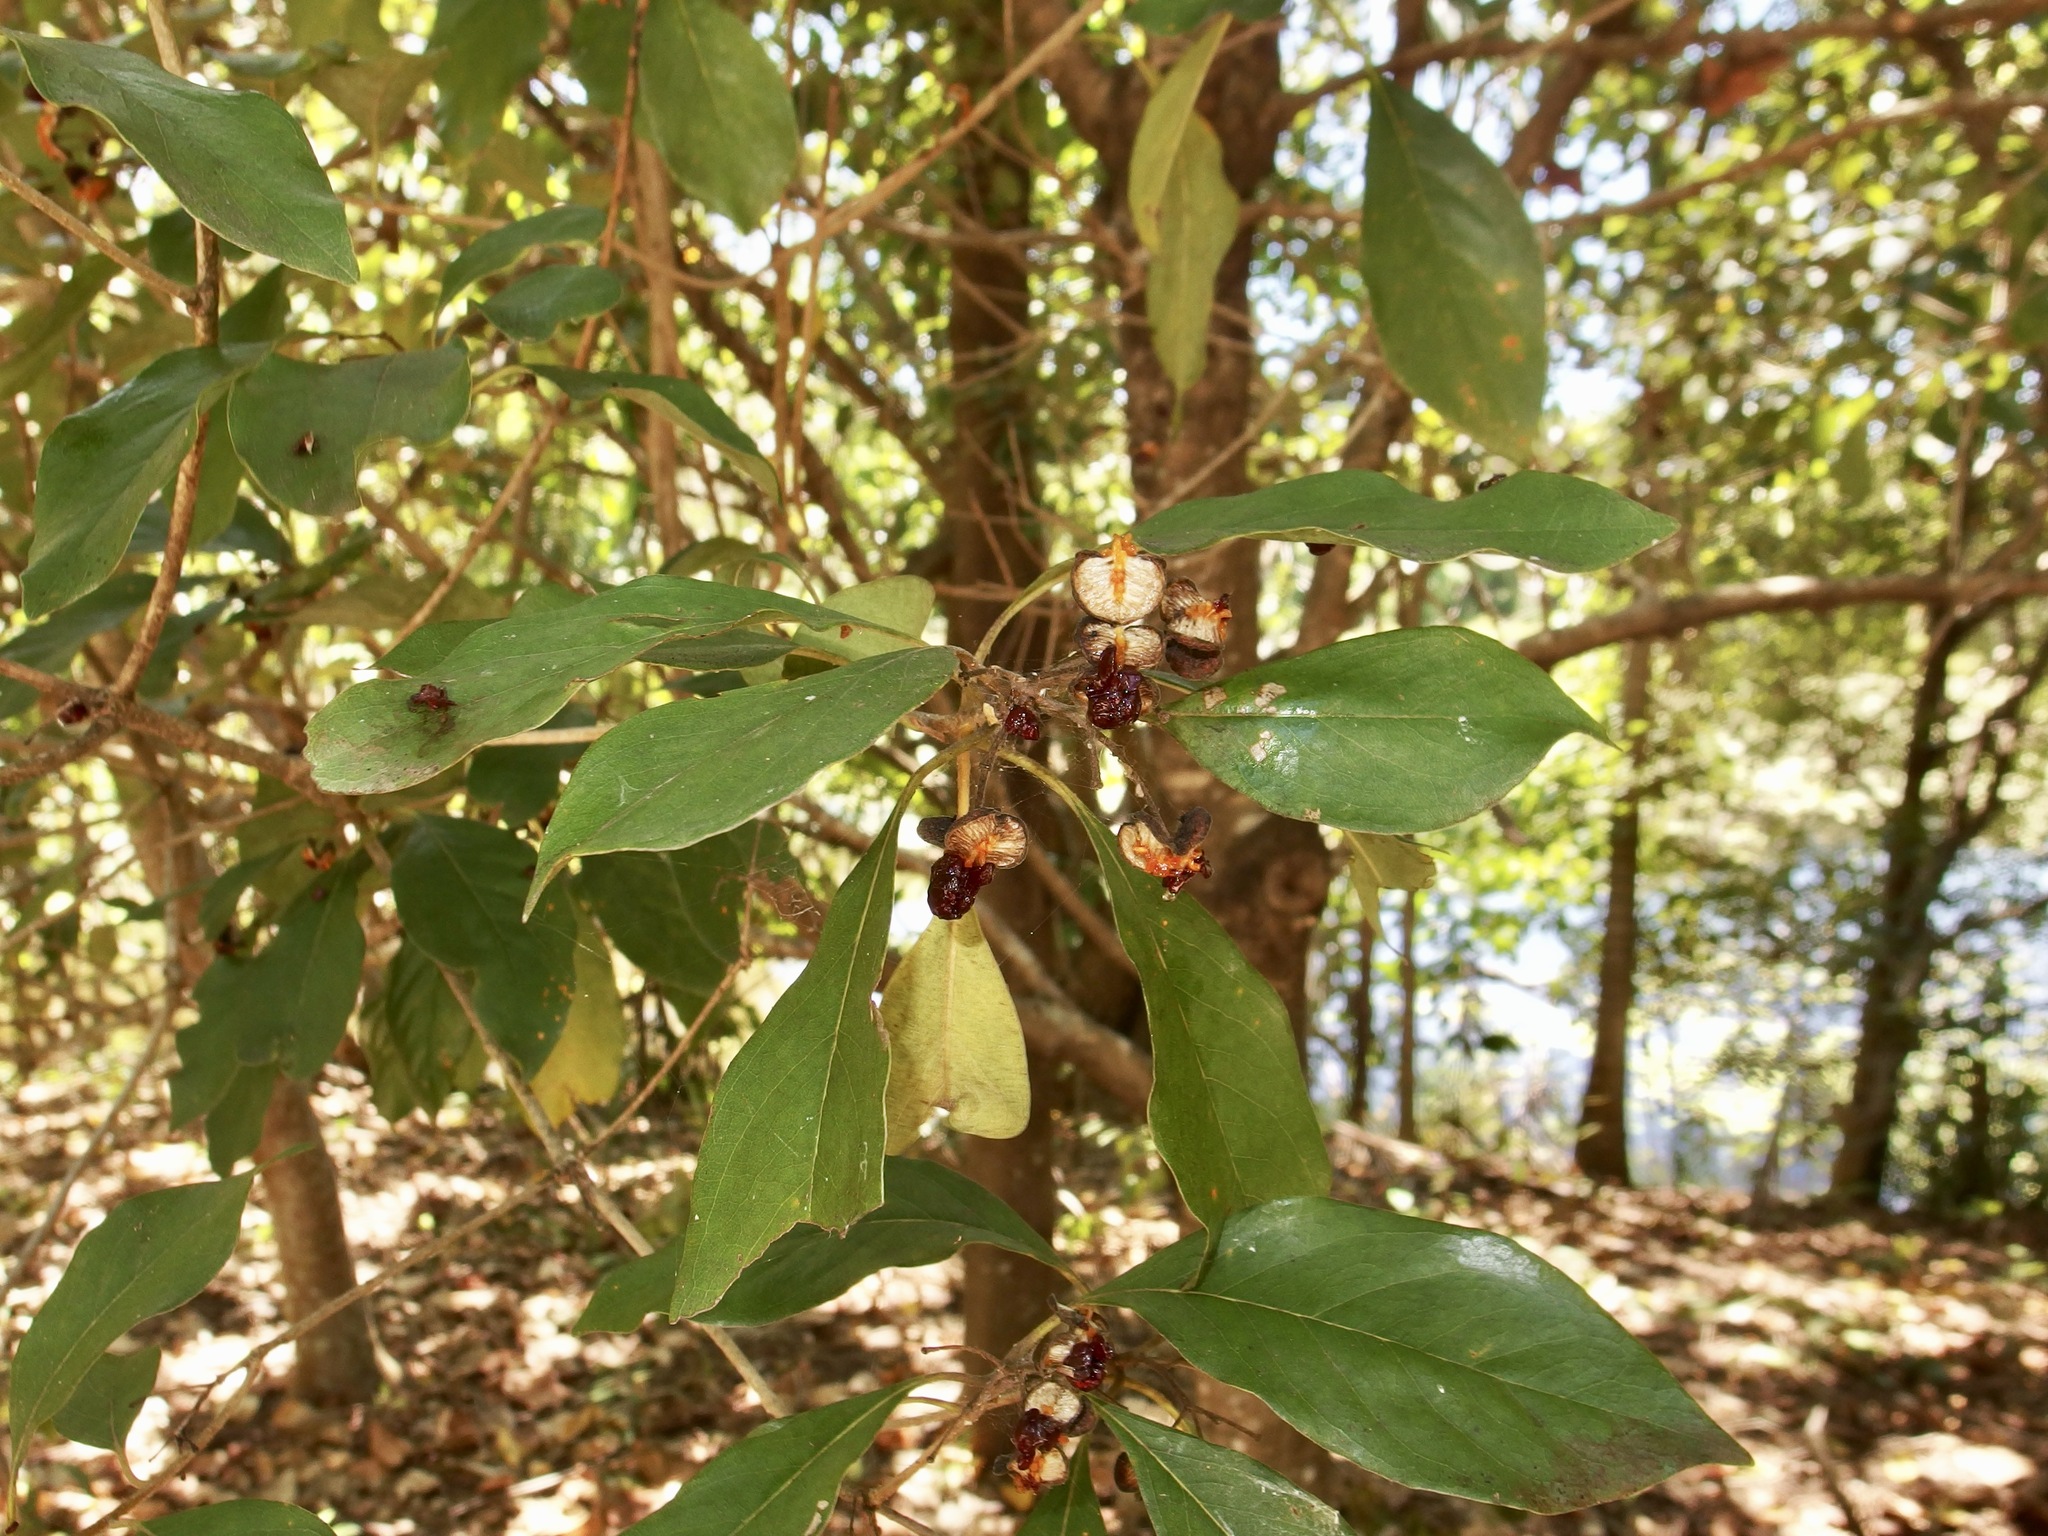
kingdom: Plantae
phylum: Tracheophyta
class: Magnoliopsida
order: Apiales
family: Pittosporaceae
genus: Pittosporum
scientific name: Pittosporum ferrugineum
